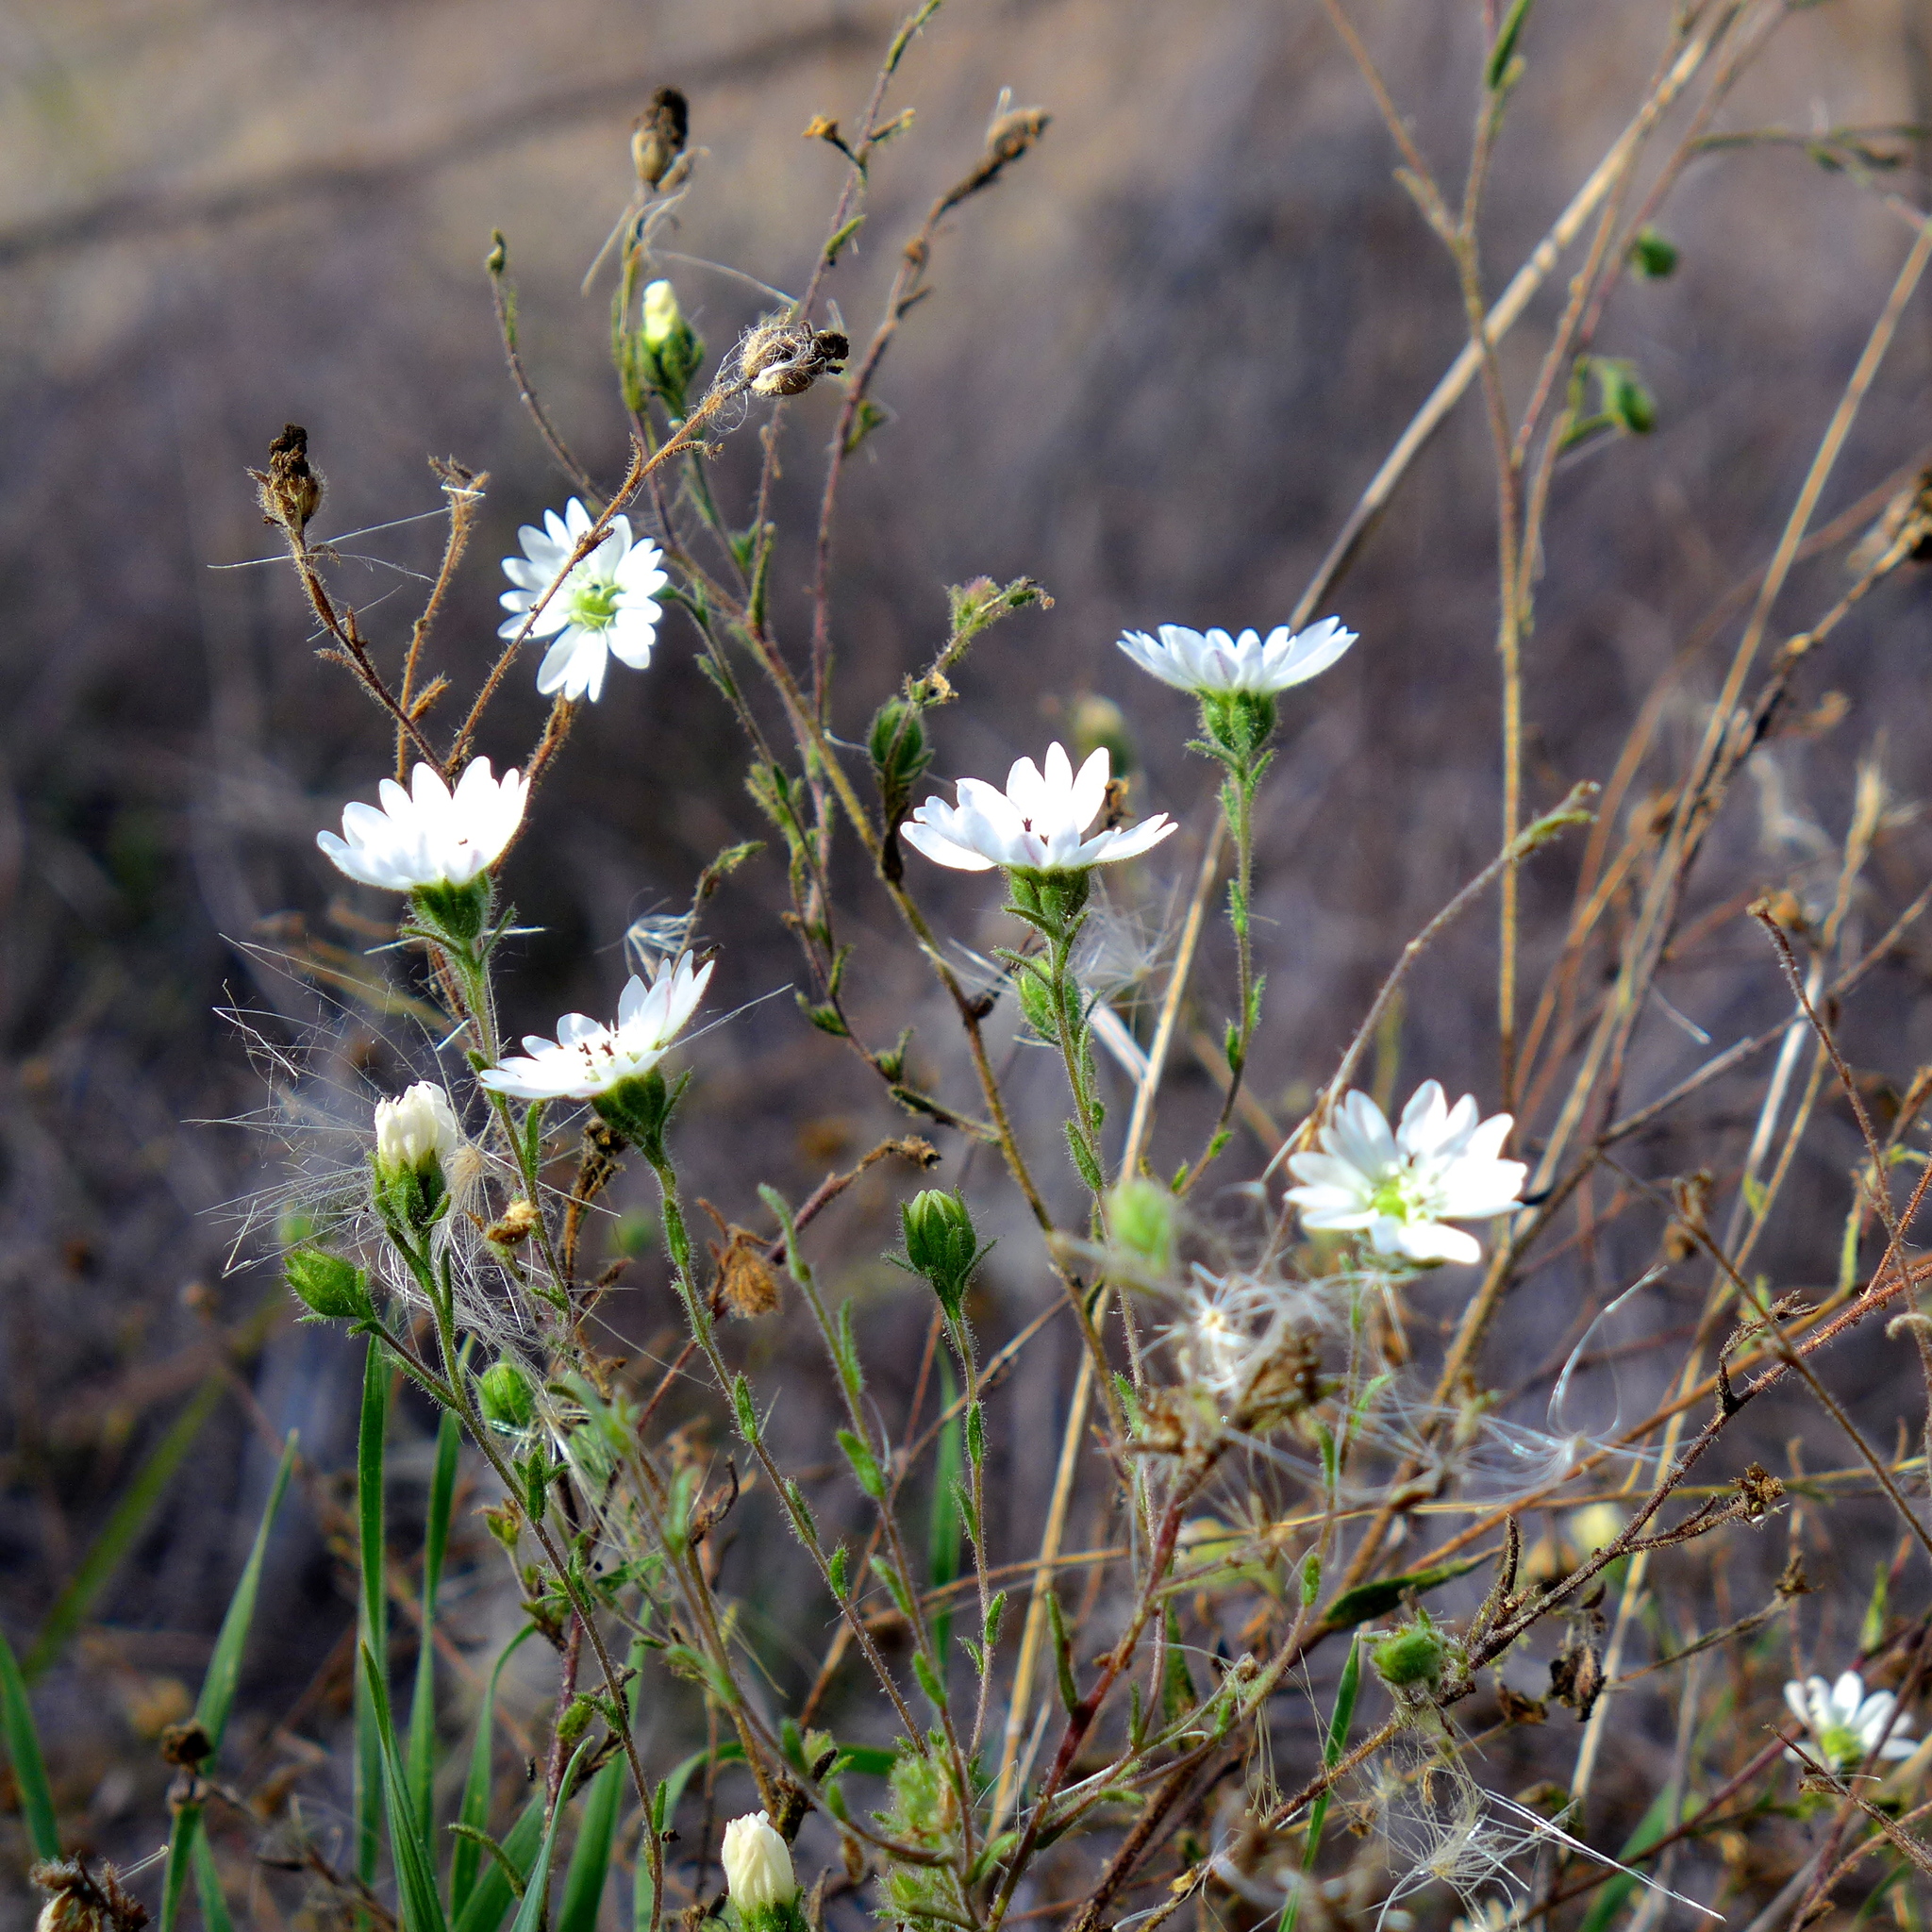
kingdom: Plantae
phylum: Tracheophyta
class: Magnoliopsida
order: Asterales
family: Asteraceae
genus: Hemizonia
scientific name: Hemizonia congesta
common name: Hayfield tarweed
